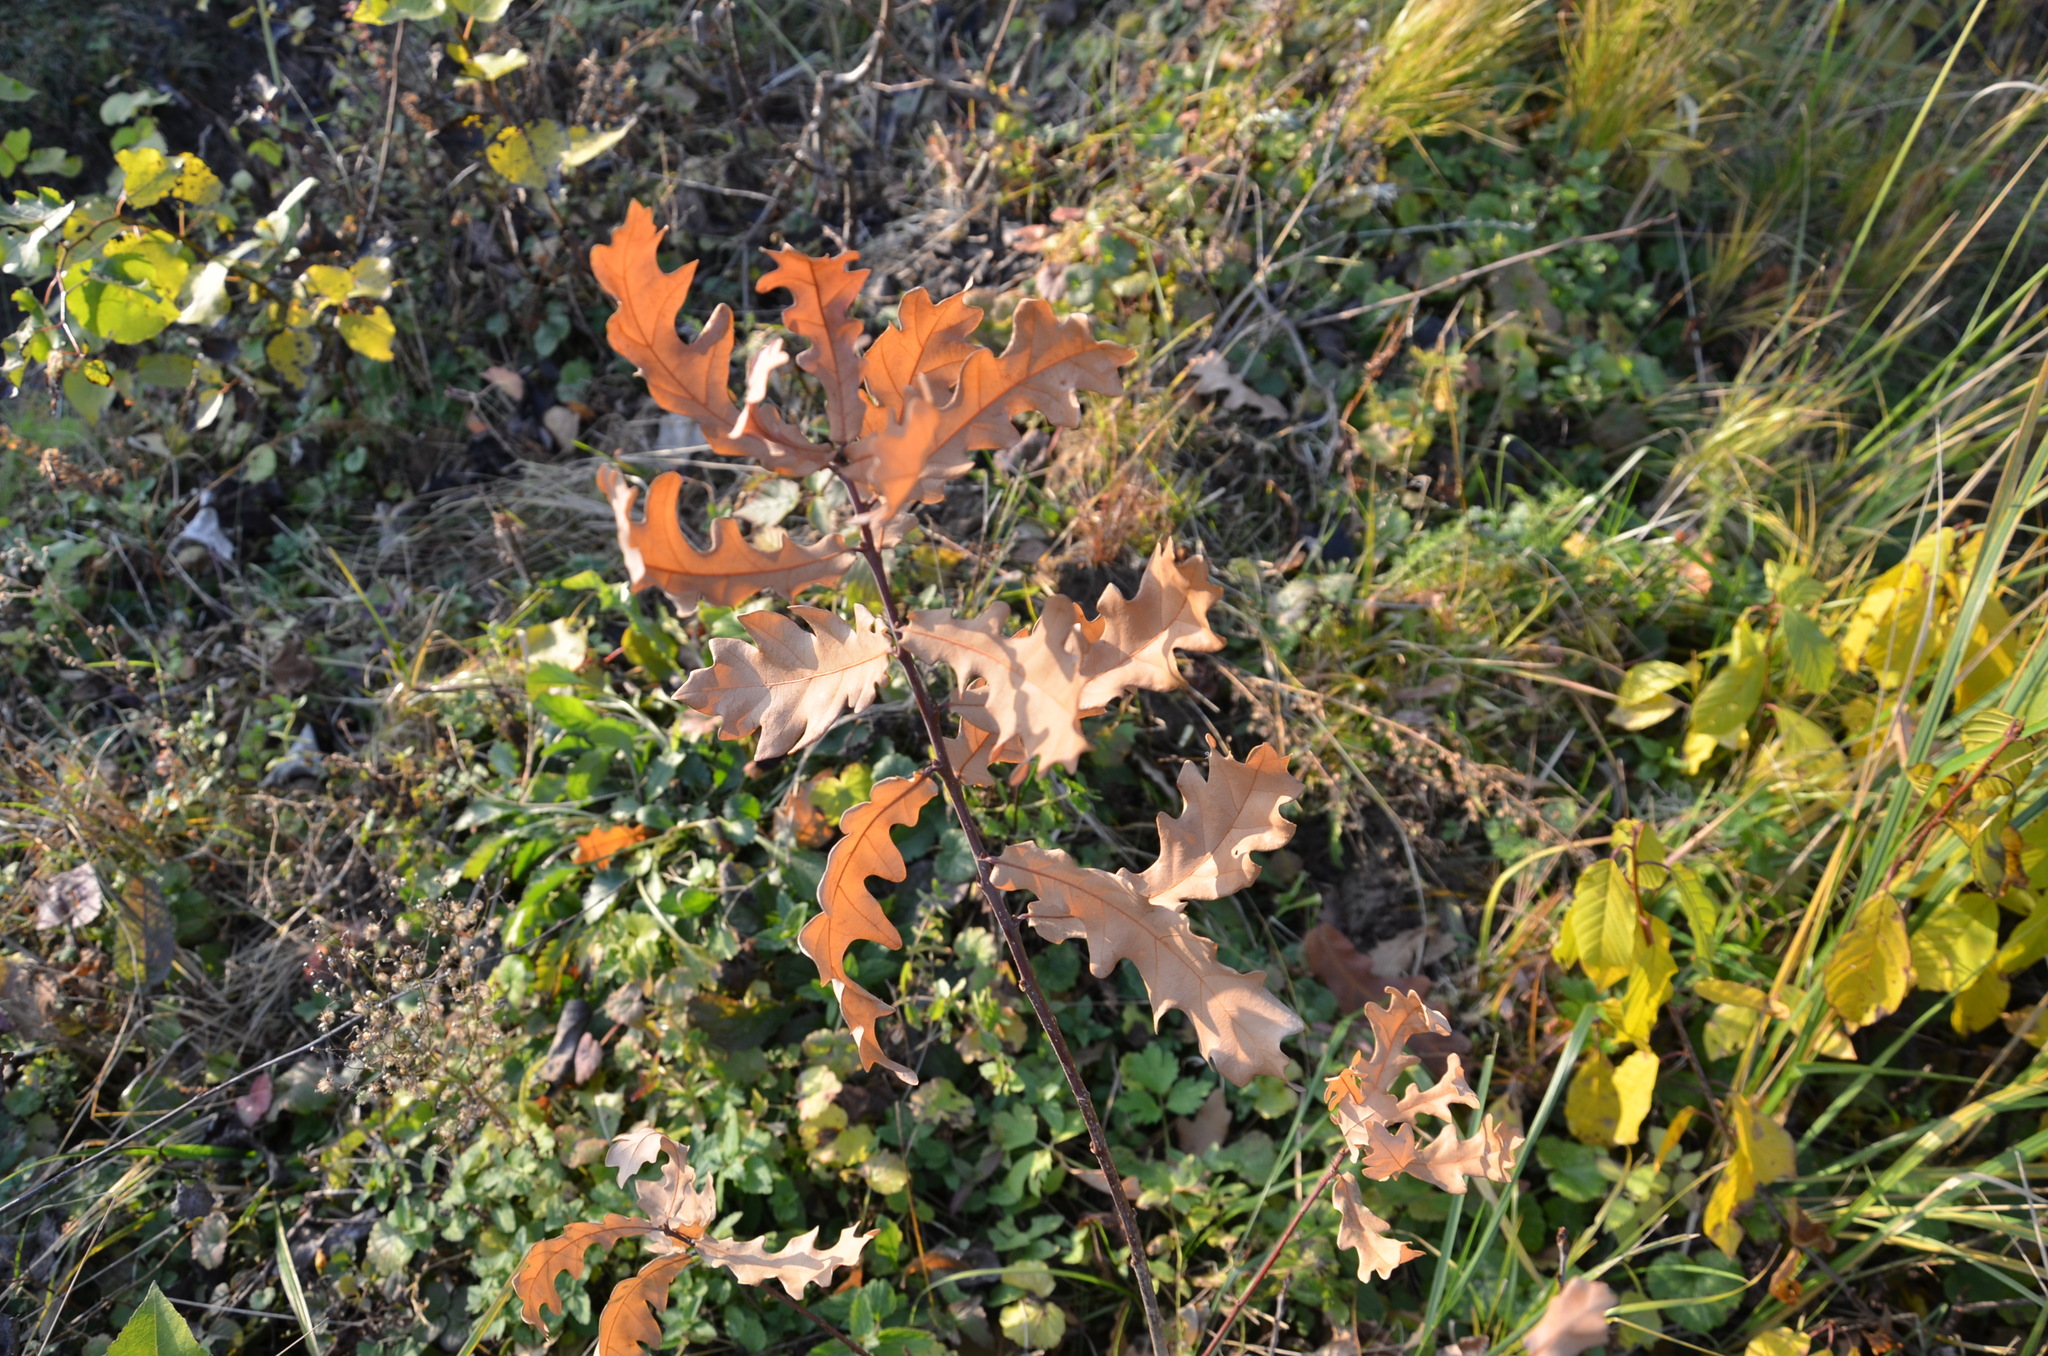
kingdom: Plantae
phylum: Tracheophyta
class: Magnoliopsida
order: Fagales
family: Fagaceae
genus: Quercus
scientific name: Quercus robur
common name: Pedunculate oak
